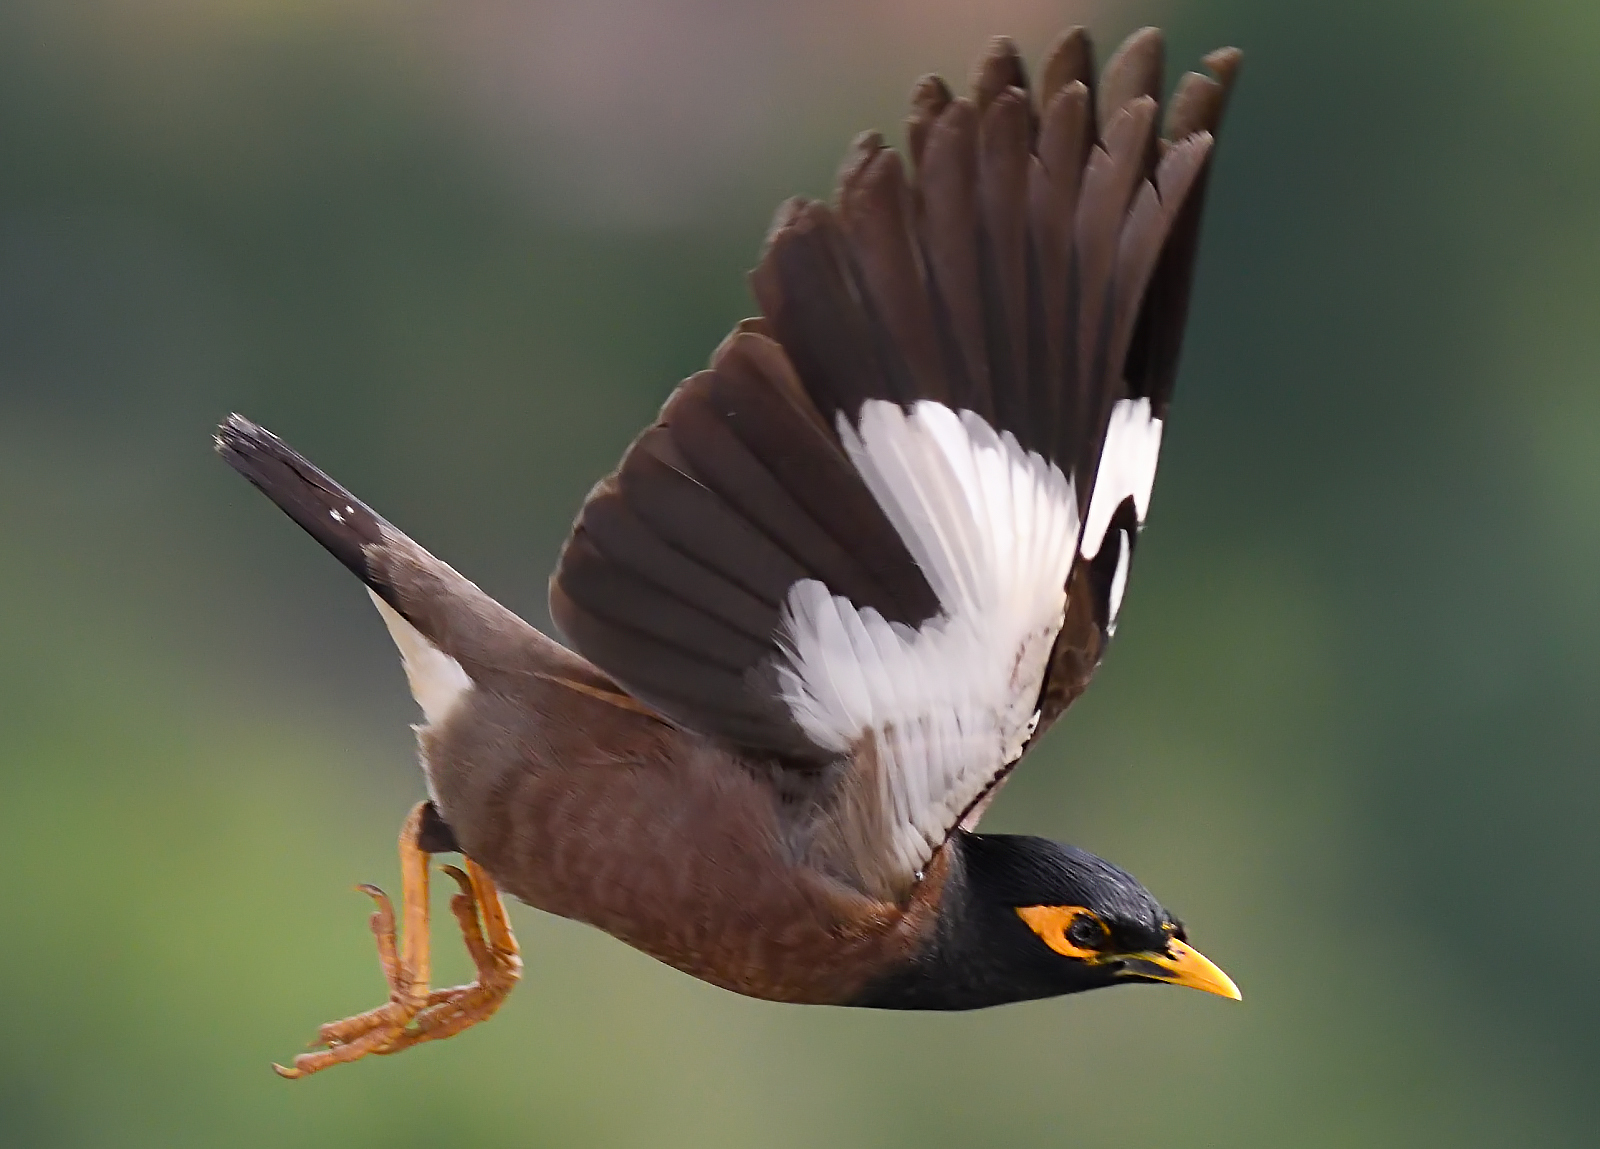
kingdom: Animalia
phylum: Chordata
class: Aves
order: Passeriformes
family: Sturnidae
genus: Acridotheres
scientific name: Acridotheres tristis
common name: Common myna
